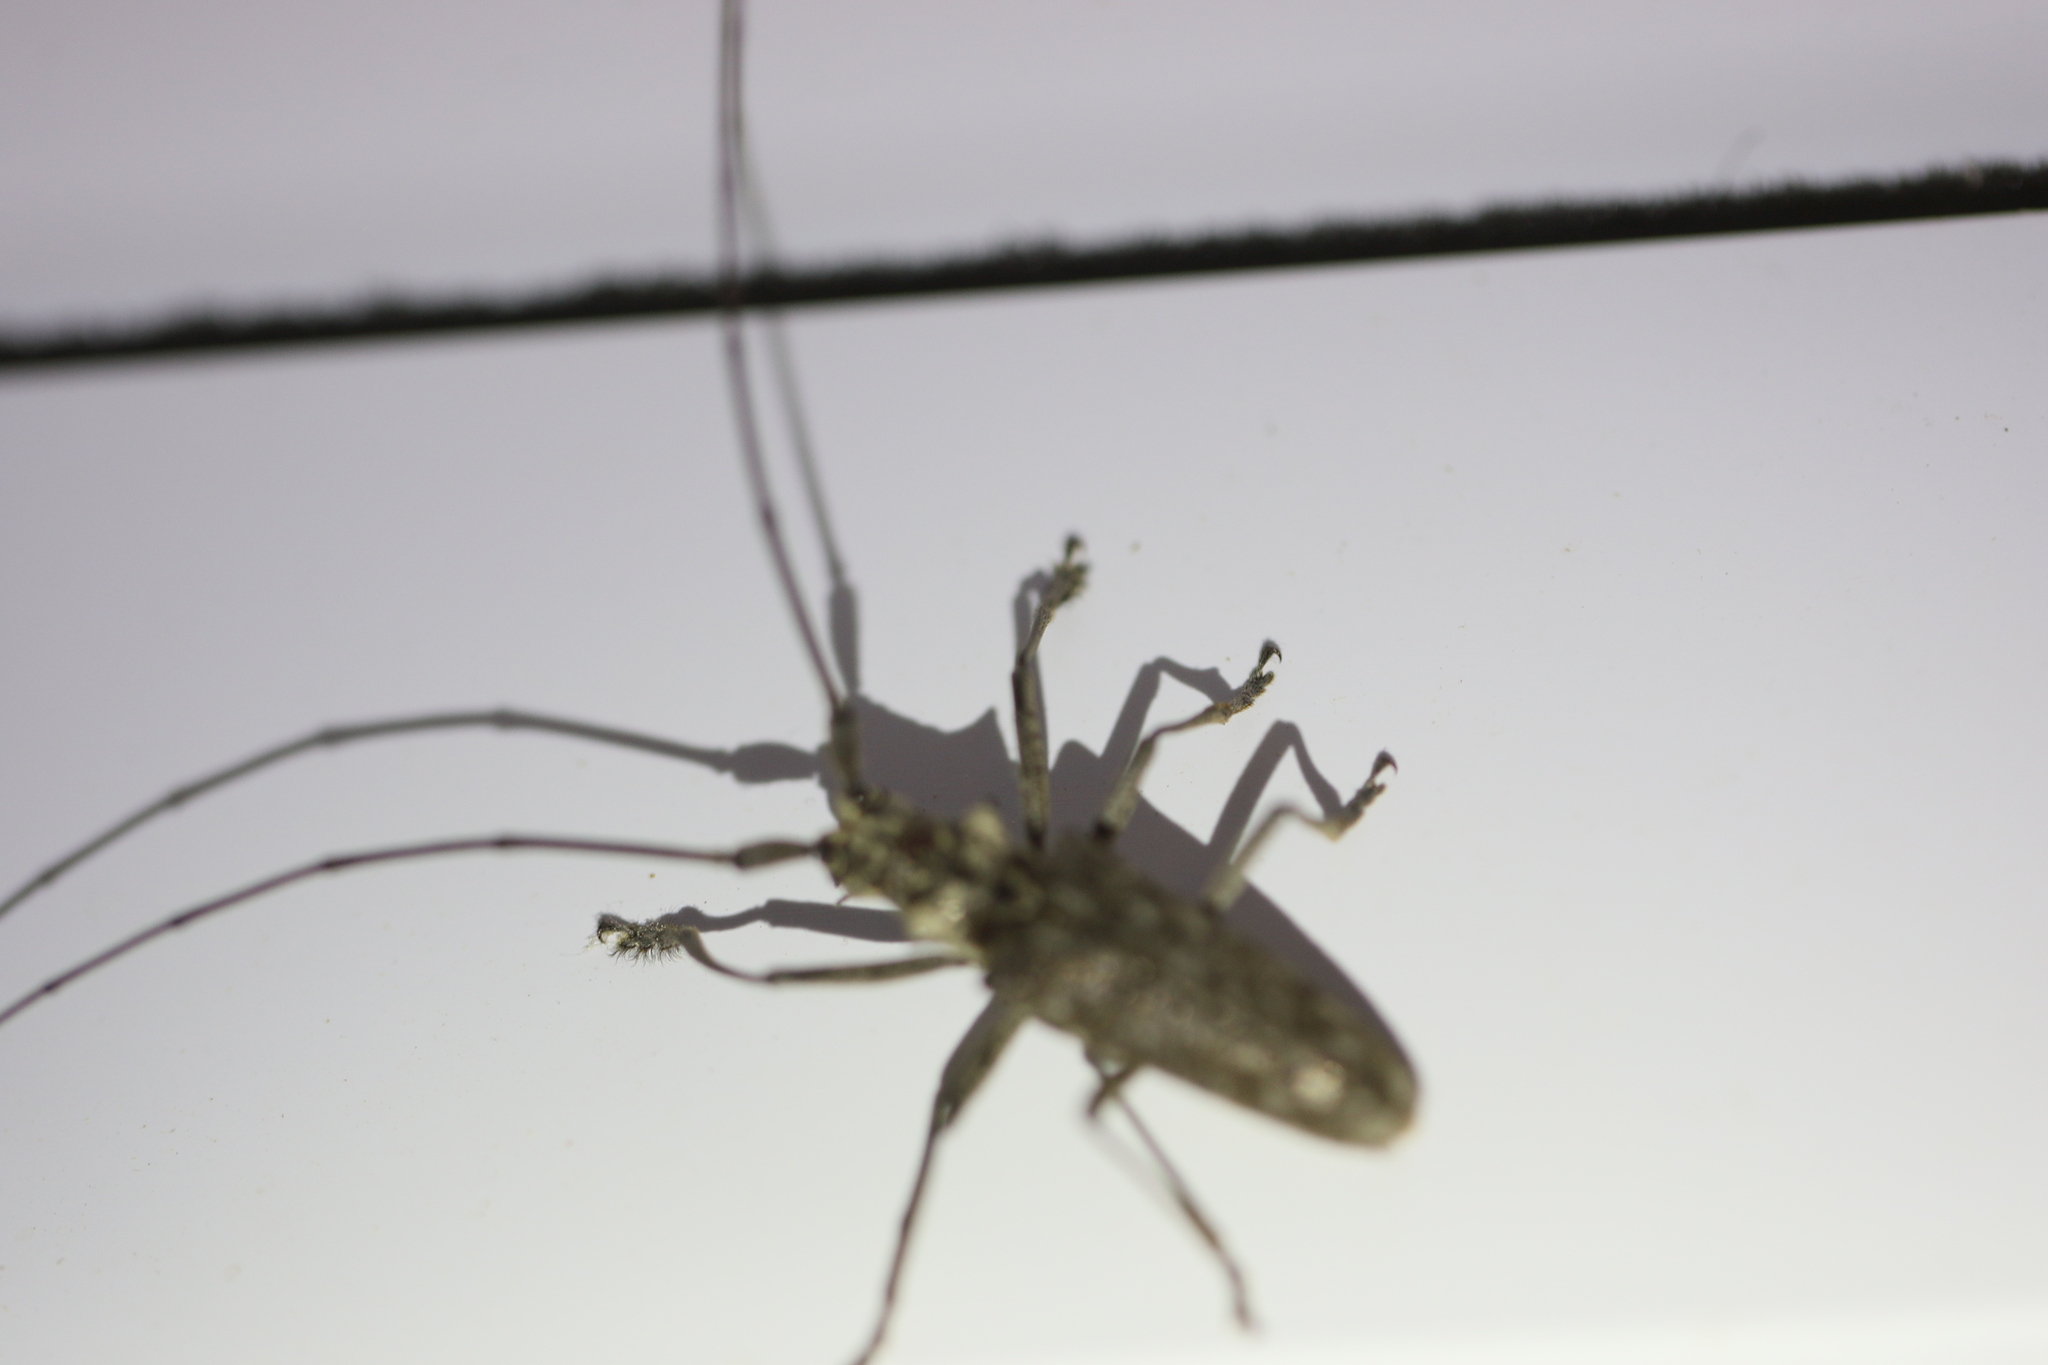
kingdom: Animalia
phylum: Arthropoda
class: Insecta
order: Coleoptera
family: Cerambycidae
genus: Monochamus
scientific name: Monochamus notatus
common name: Northeastern pine sawyer beetle
